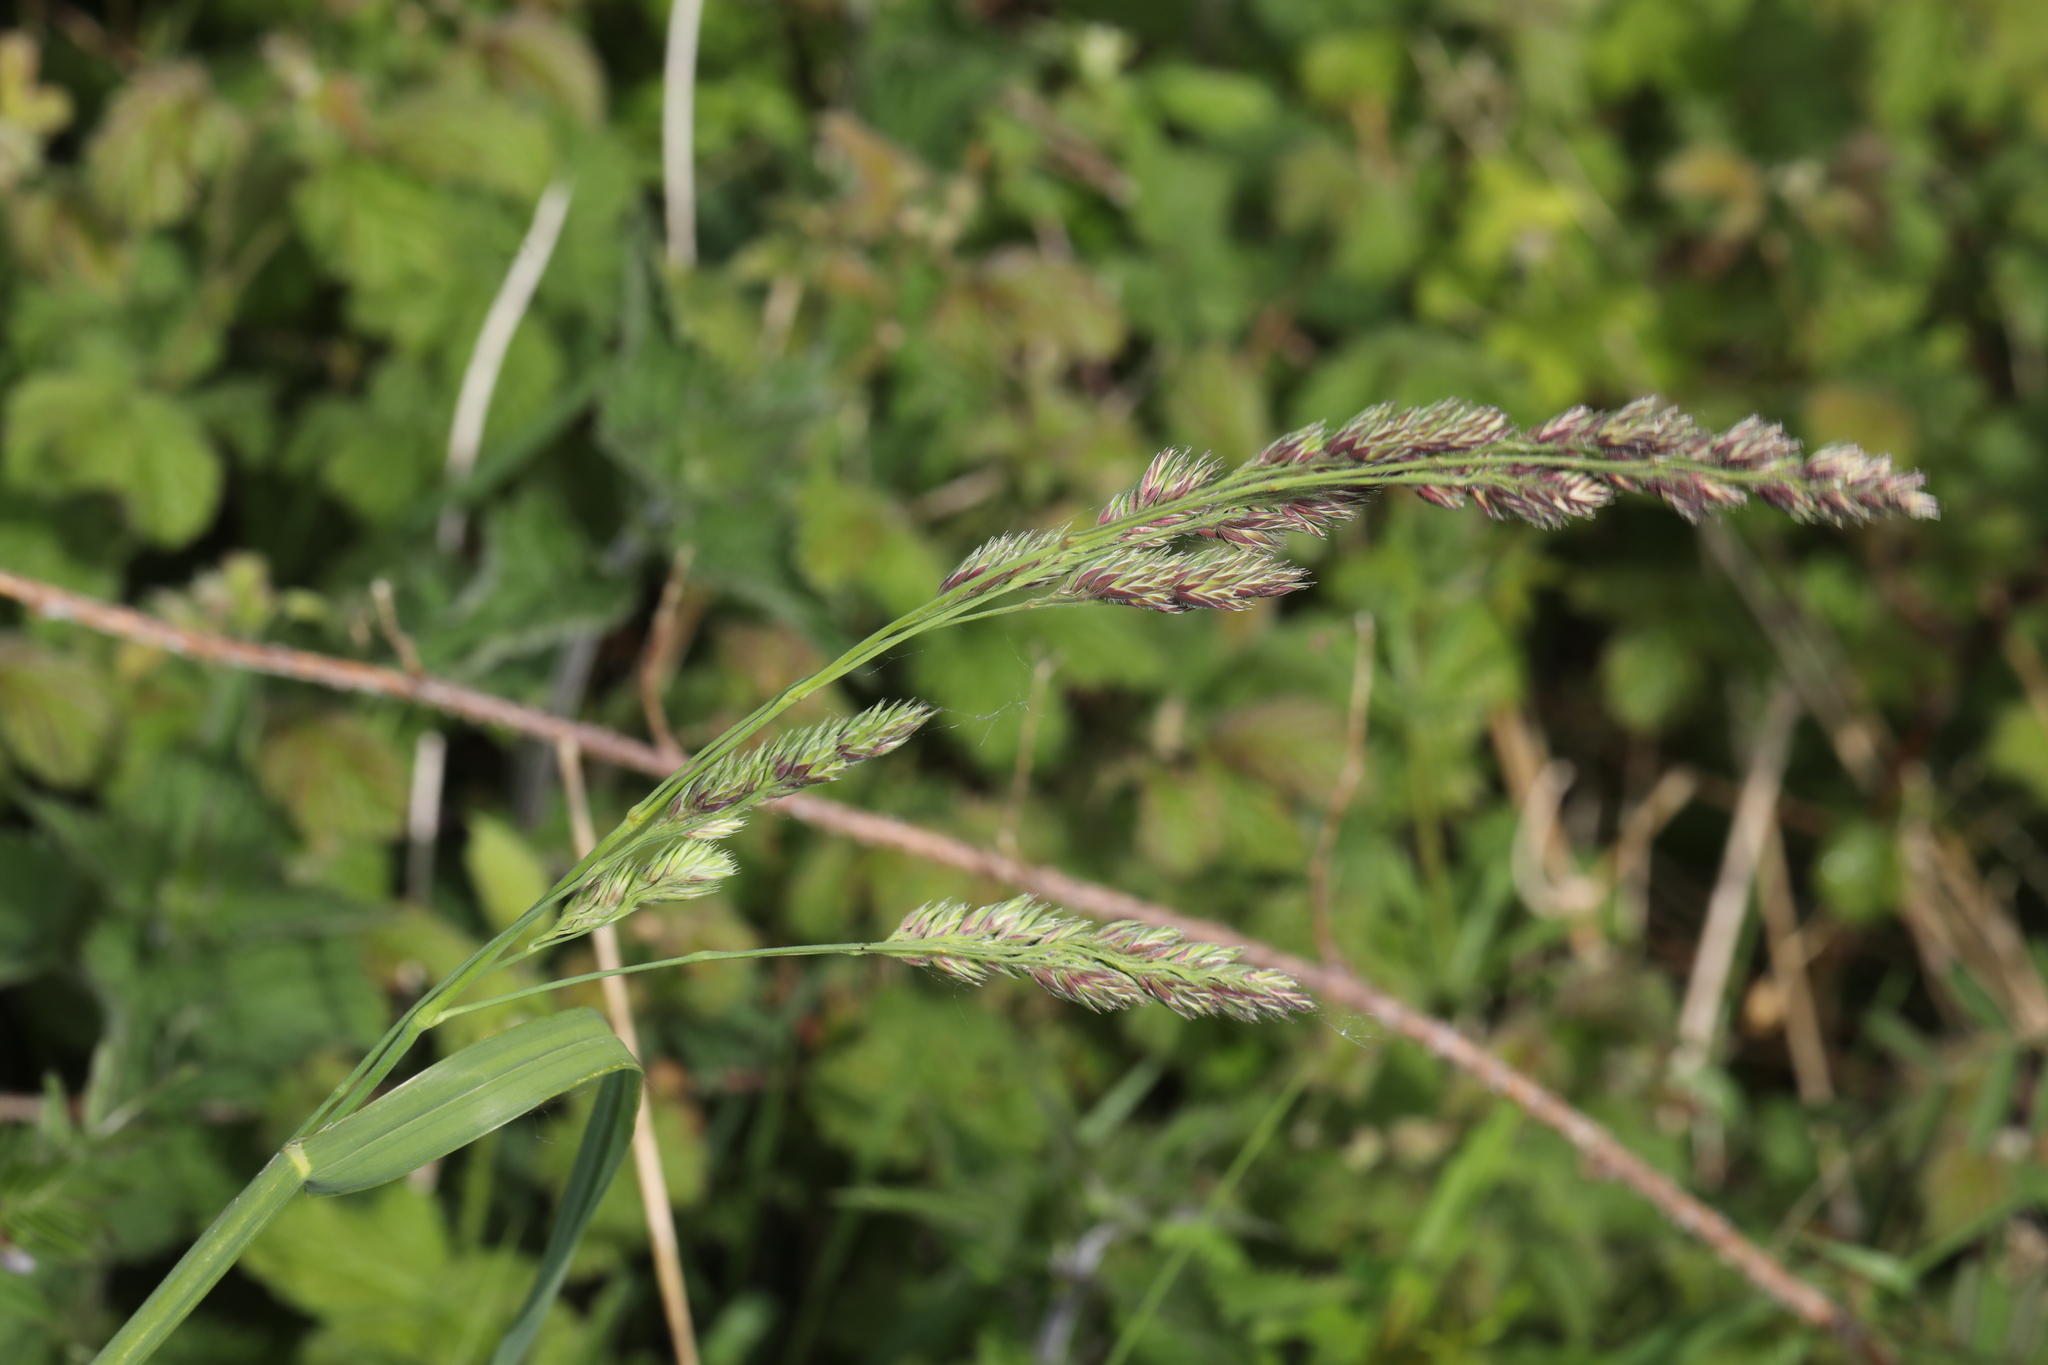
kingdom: Plantae
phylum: Tracheophyta
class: Liliopsida
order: Poales
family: Poaceae
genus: Dactylis
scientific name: Dactylis glomerata
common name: Orchardgrass
